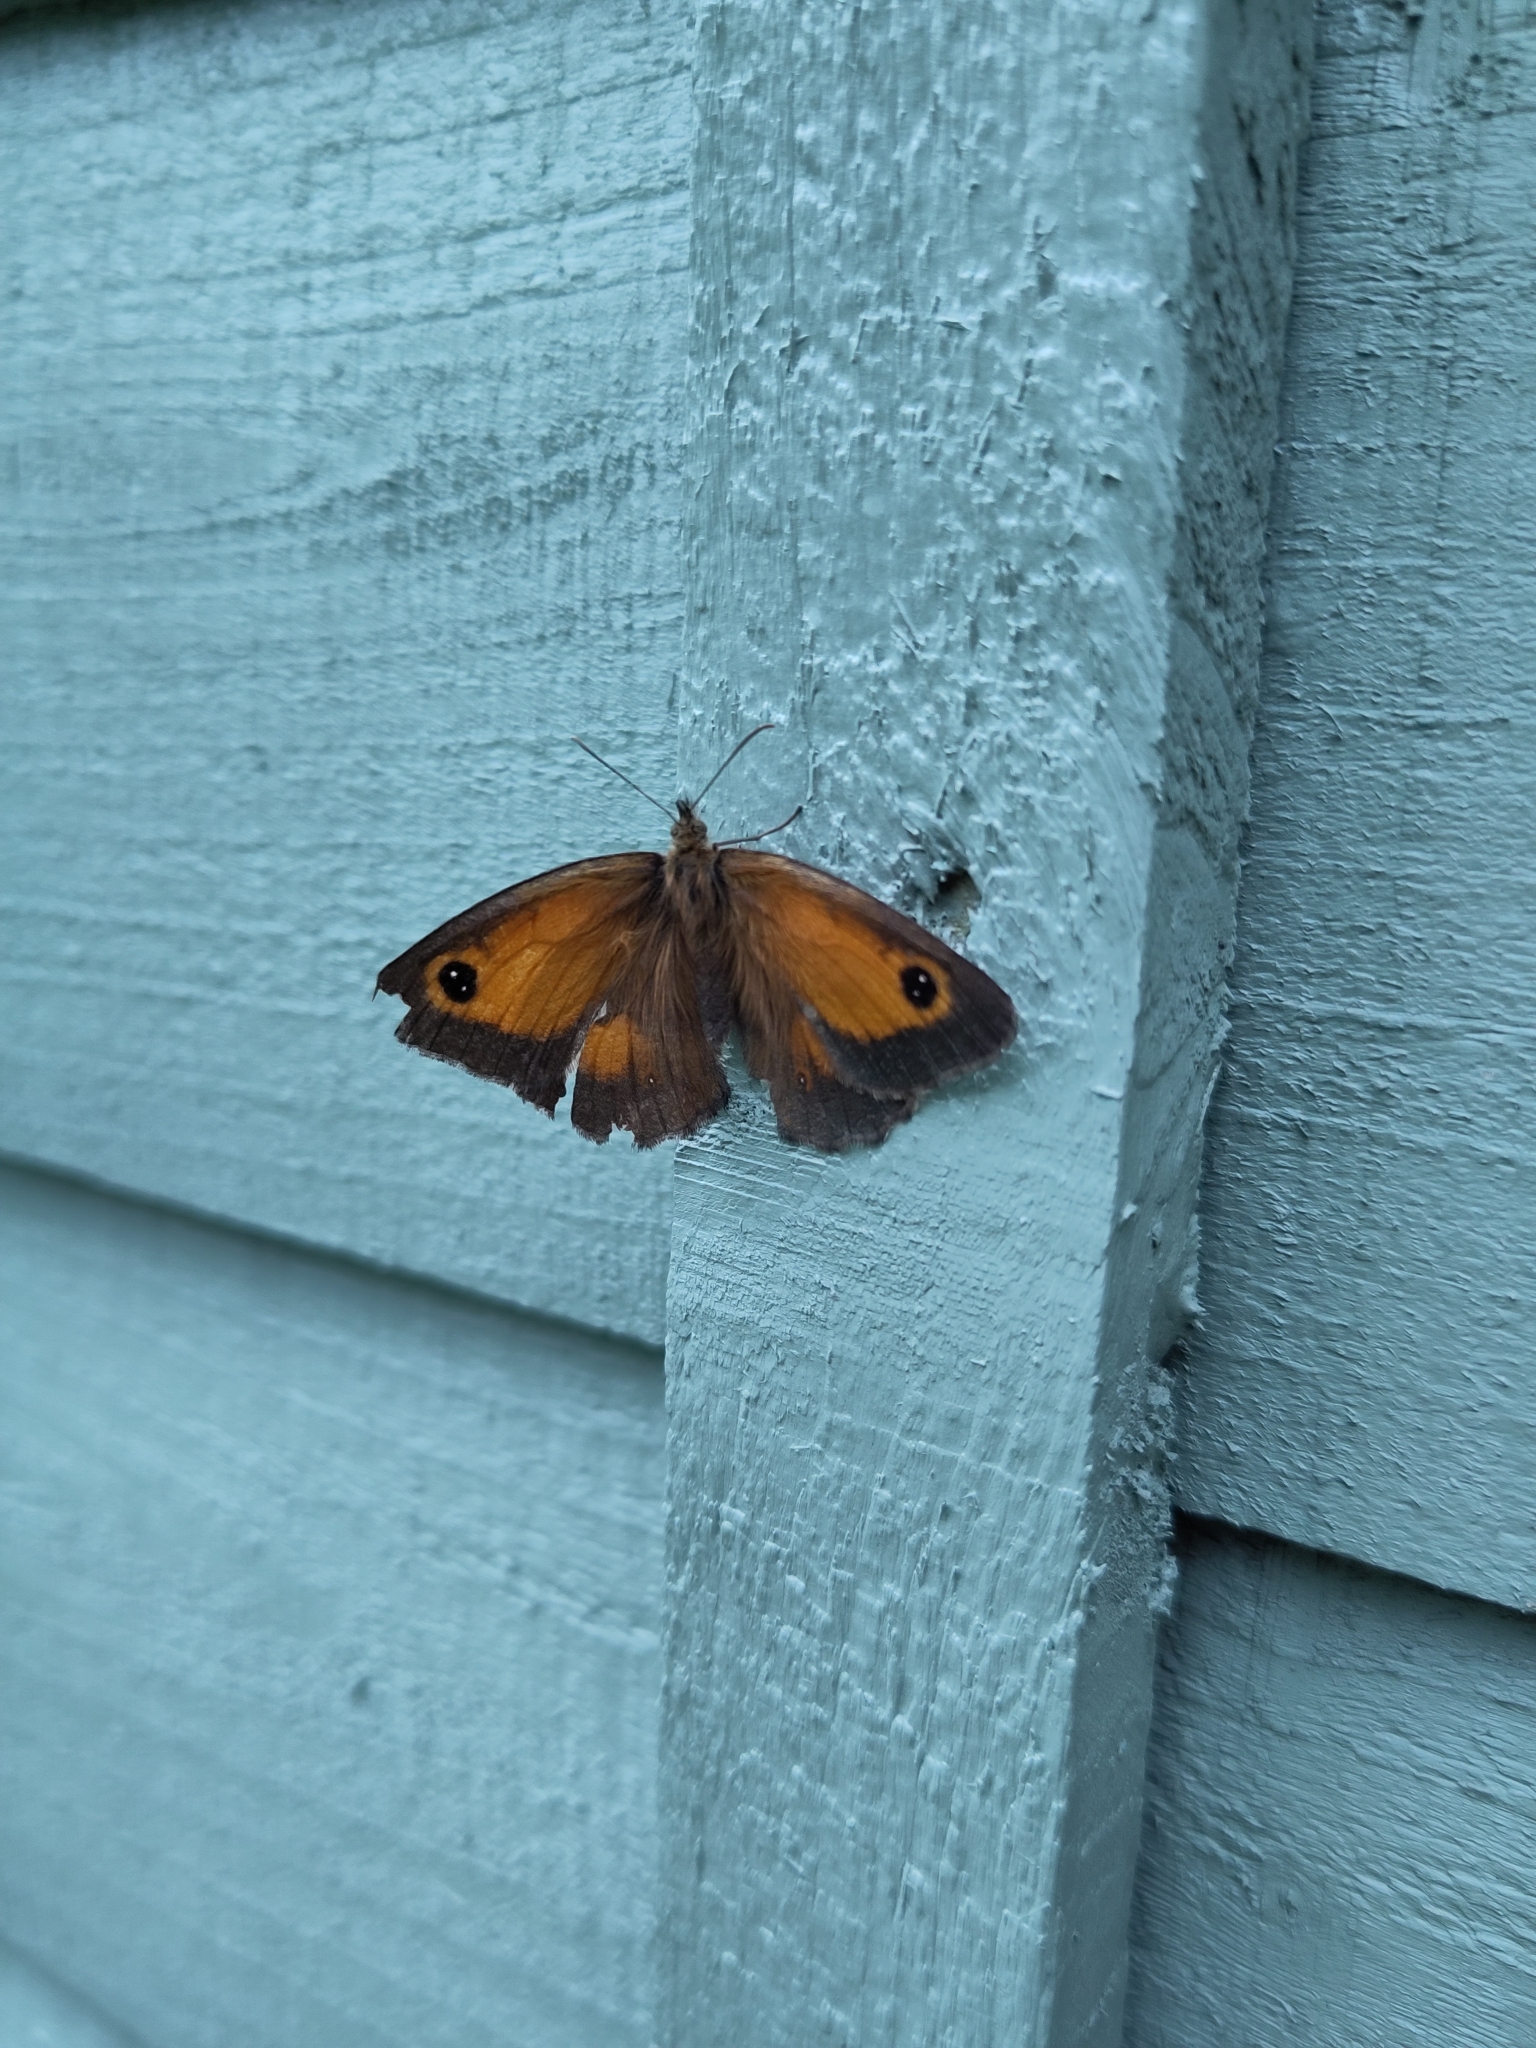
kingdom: Animalia
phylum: Arthropoda
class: Insecta
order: Lepidoptera
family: Nymphalidae
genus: Pyronia
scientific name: Pyronia tithonus
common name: Gatekeeper
